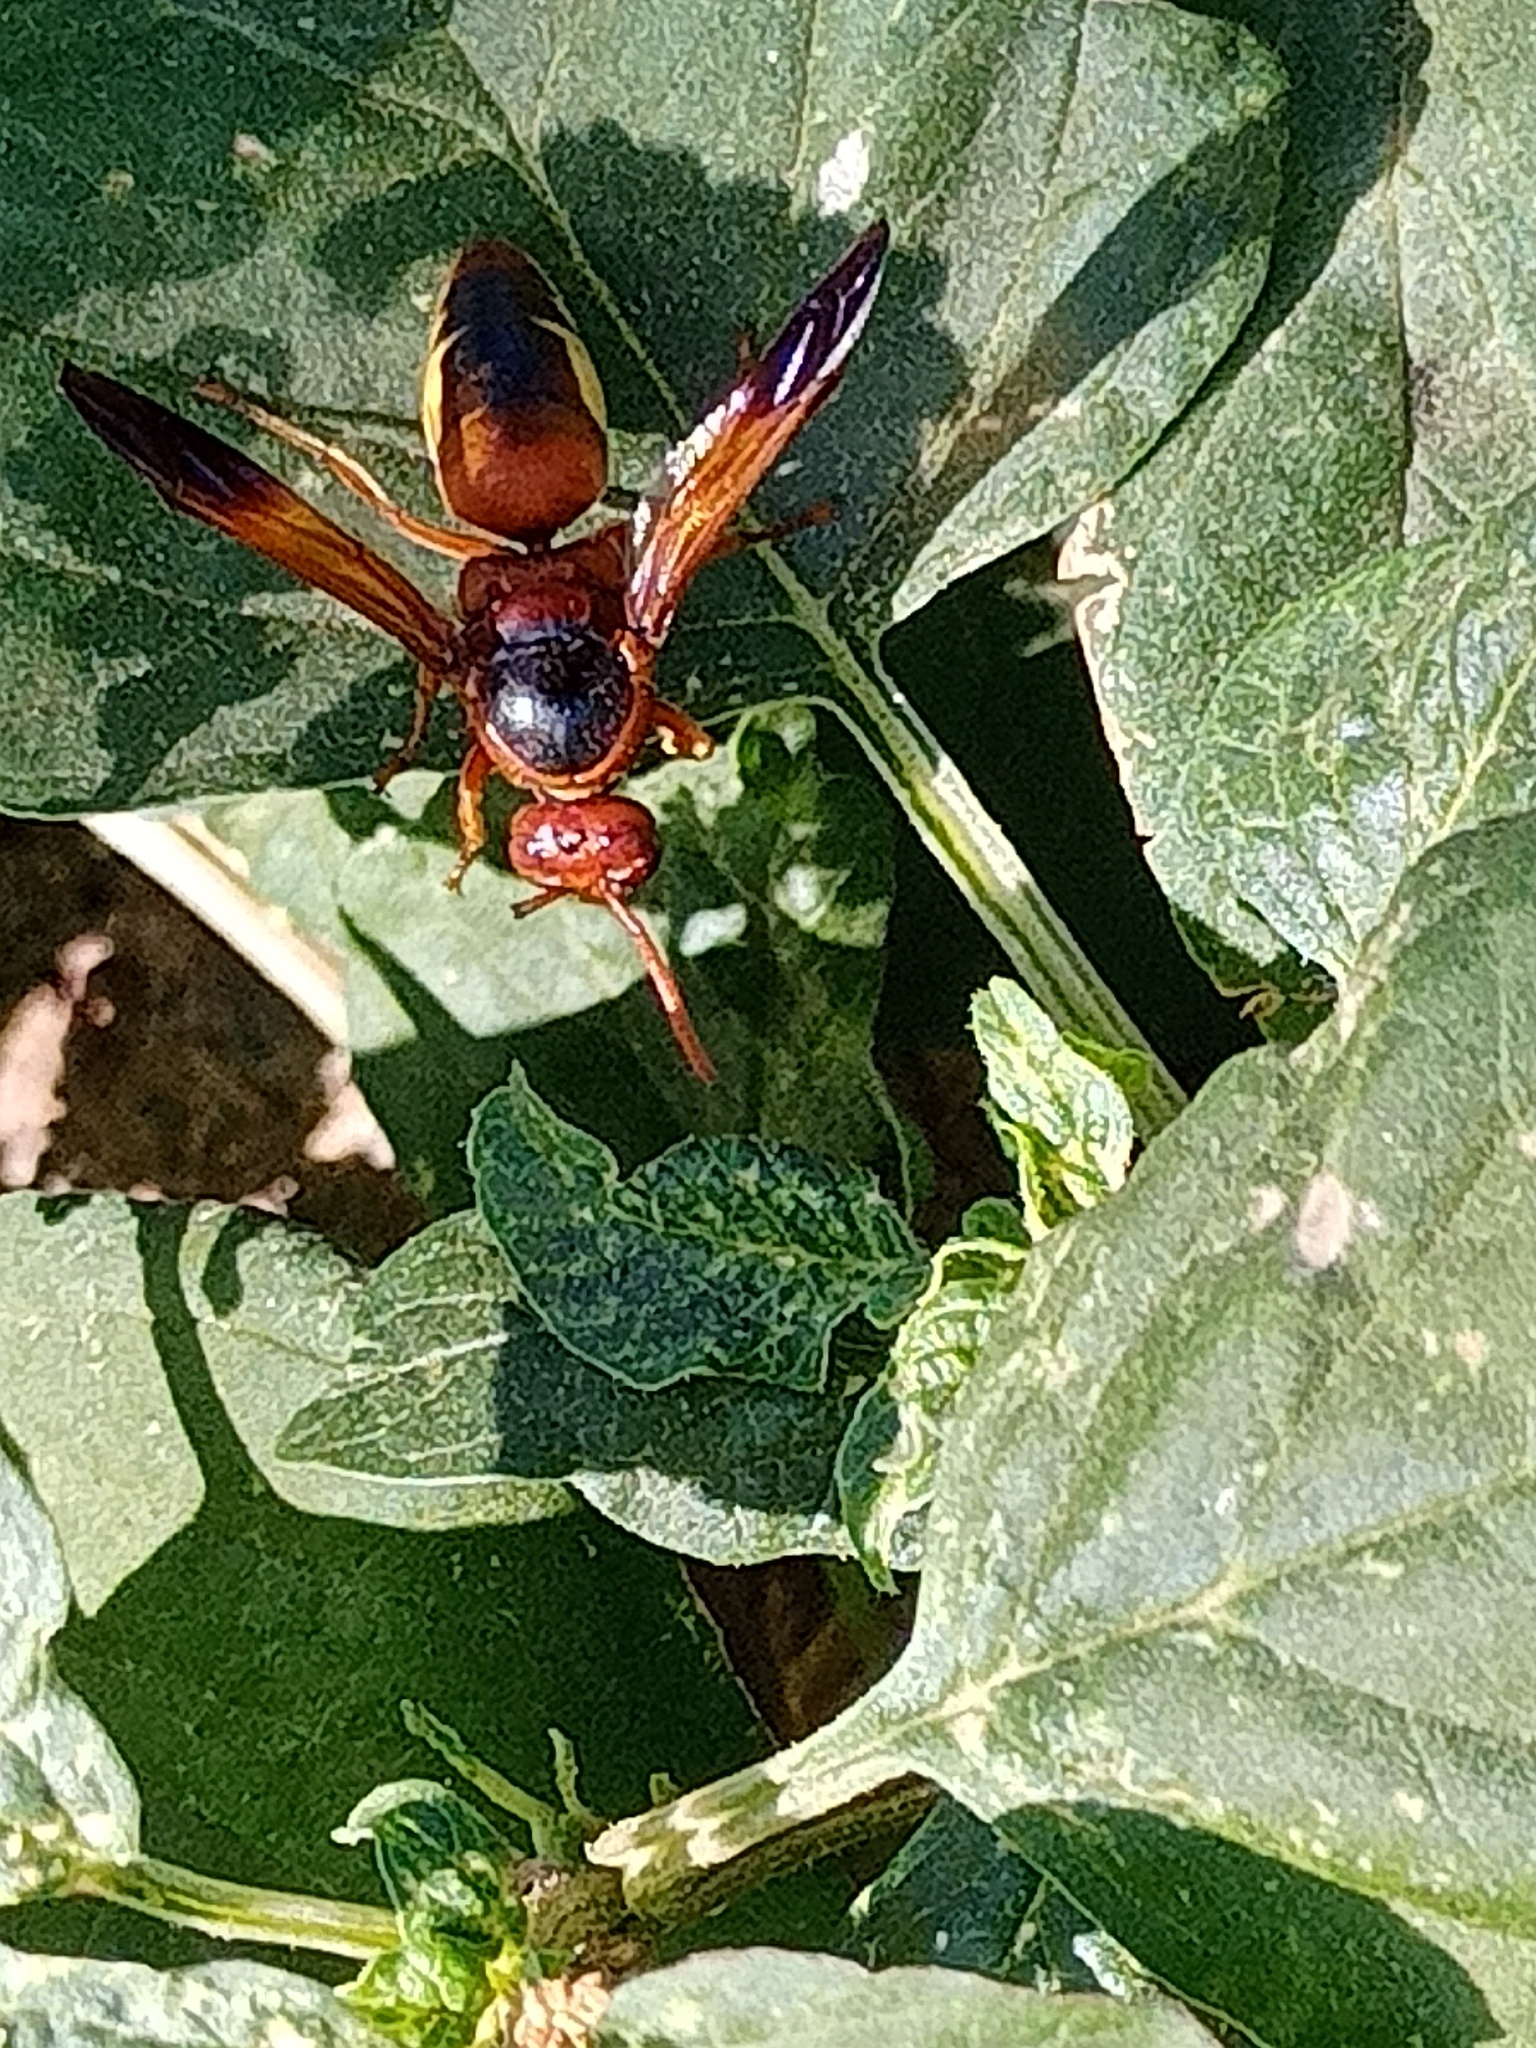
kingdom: Animalia
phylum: Arthropoda
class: Insecta
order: Hymenoptera
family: Eumenidae
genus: Rhynchium
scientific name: Rhynchium oculatum
